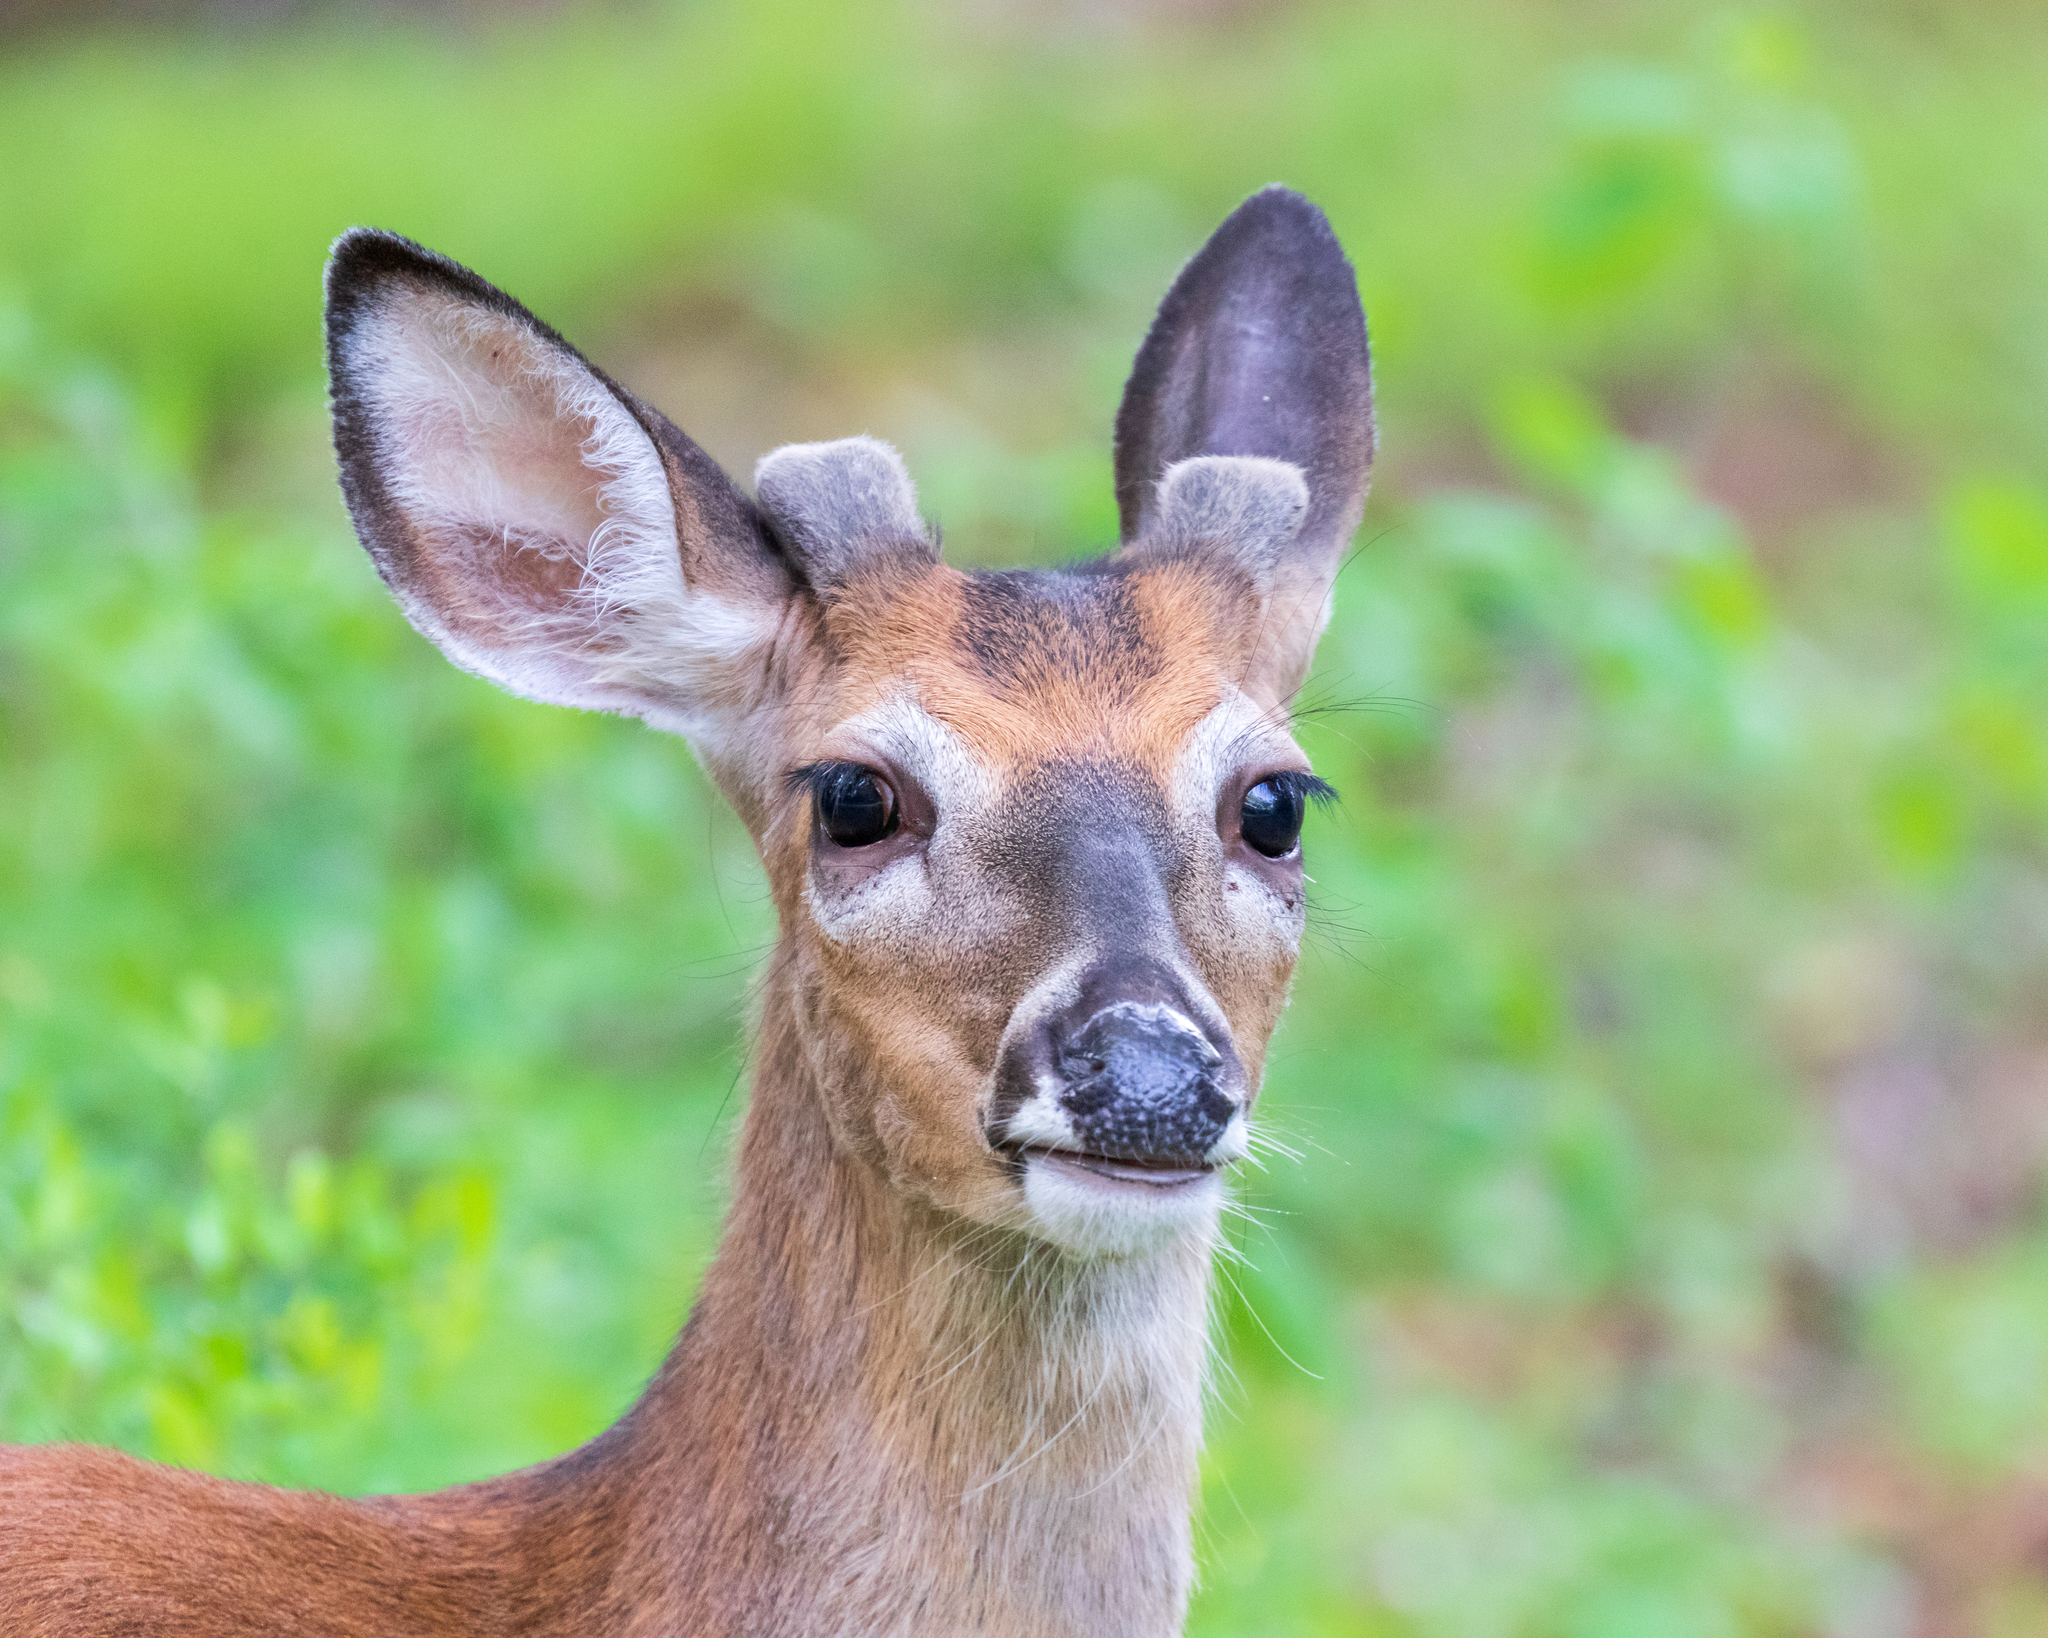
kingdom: Animalia
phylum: Chordata
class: Mammalia
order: Artiodactyla
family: Cervidae
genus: Odocoileus
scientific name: Odocoileus virginianus
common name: White-tailed deer
